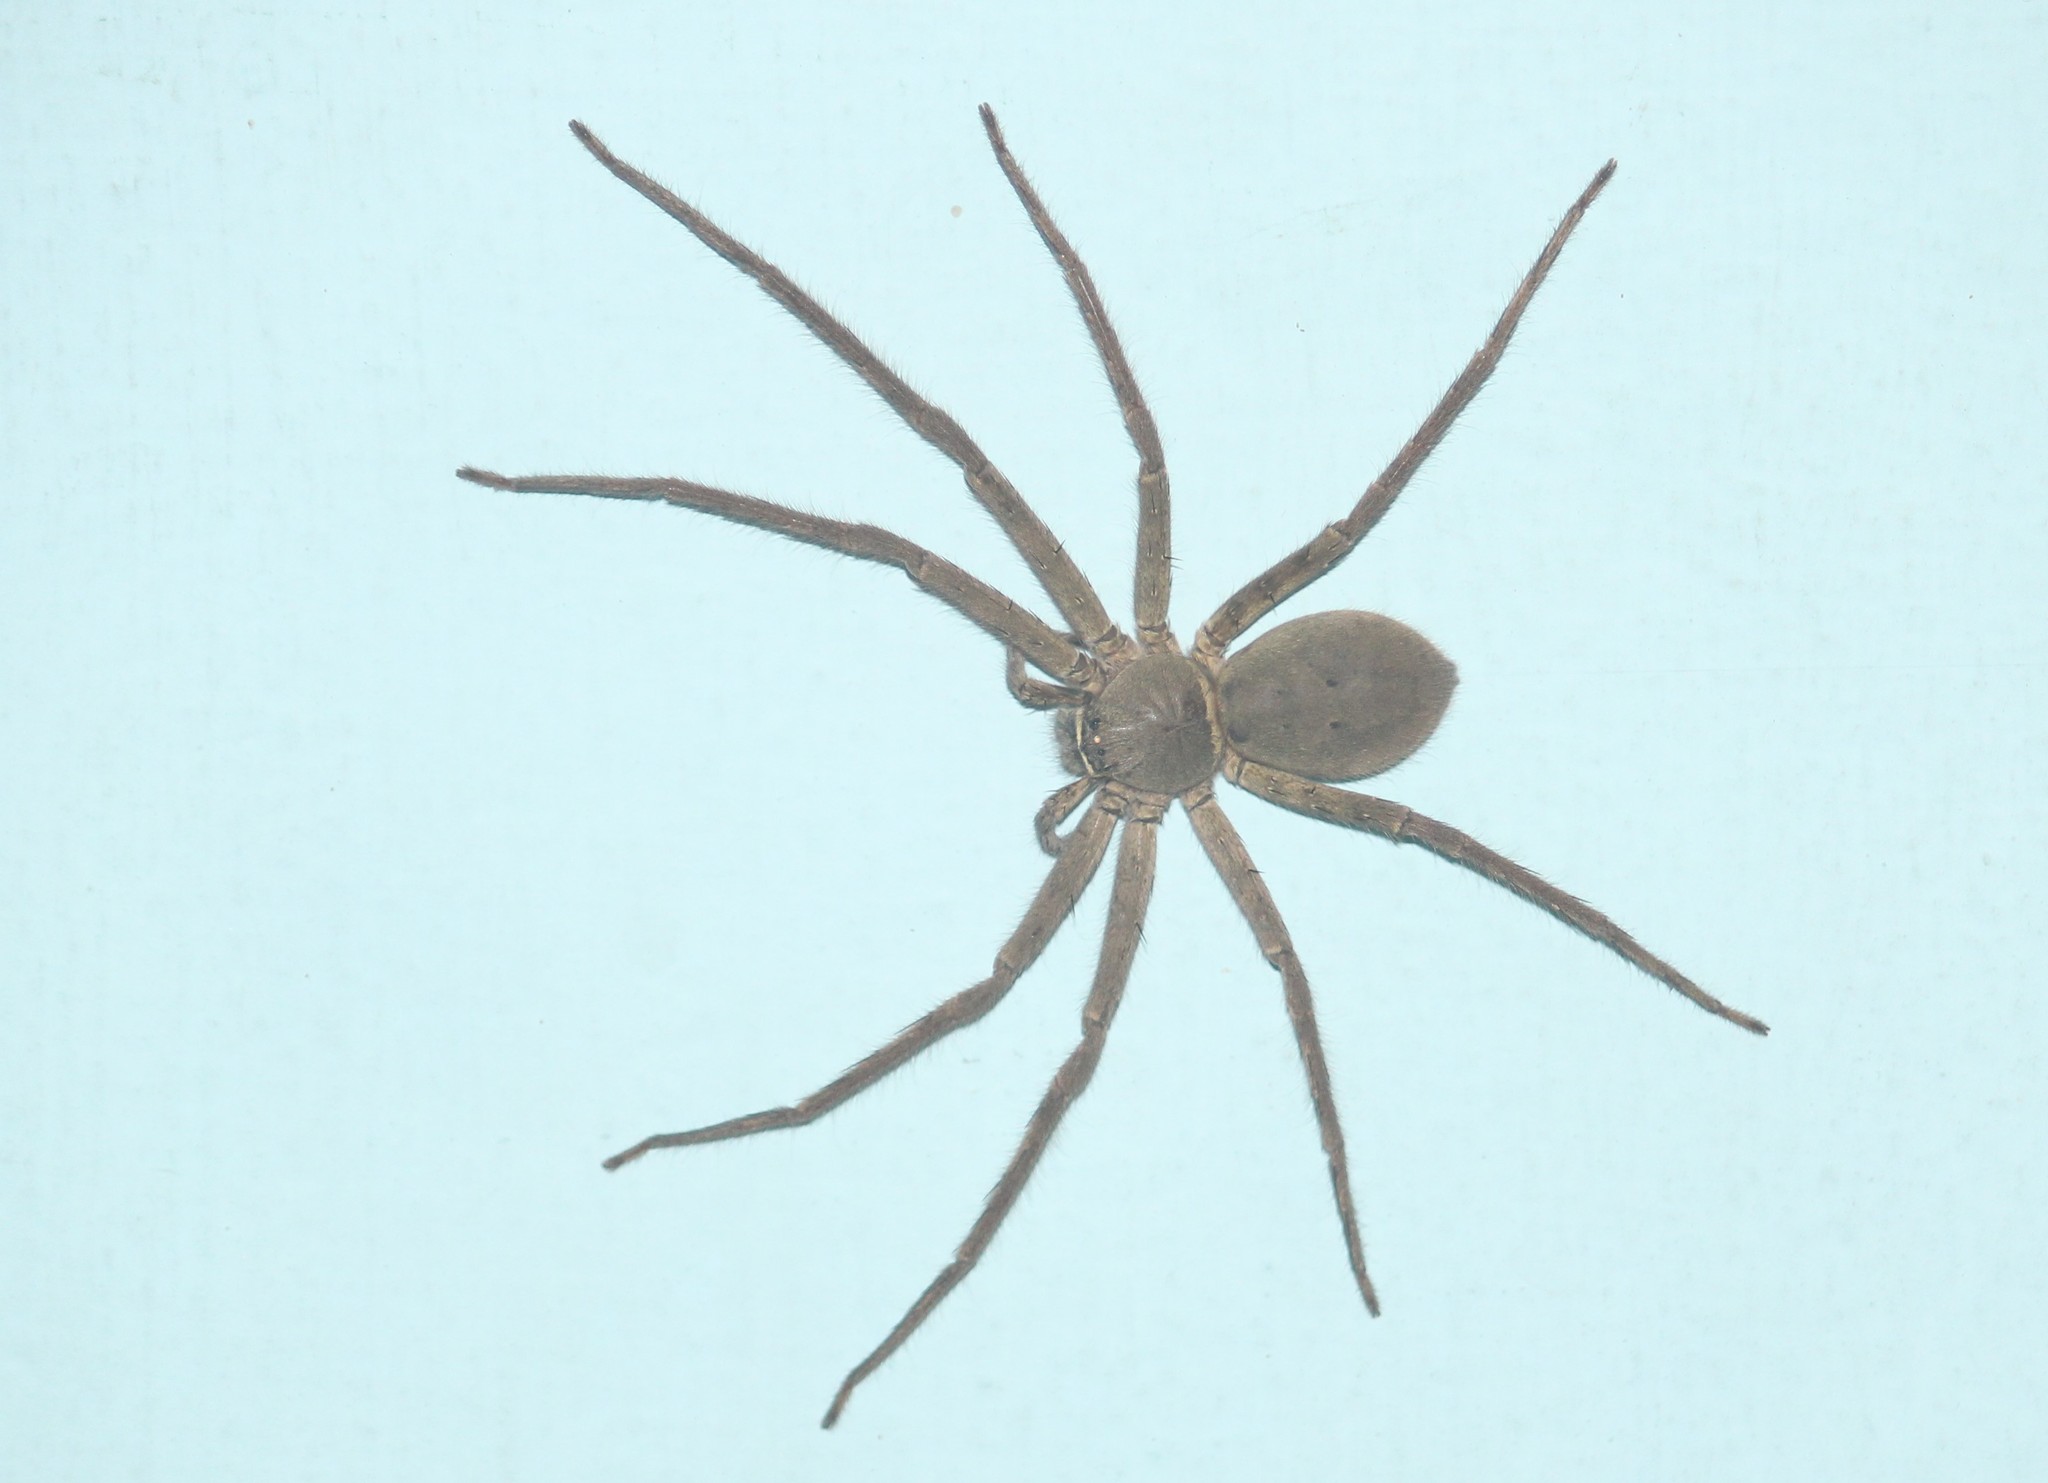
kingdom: Animalia
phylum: Arthropoda
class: Arachnida
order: Araneae
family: Sparassidae
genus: Heteropoda
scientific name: Heteropoda venatoria
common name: Huntsman spider
